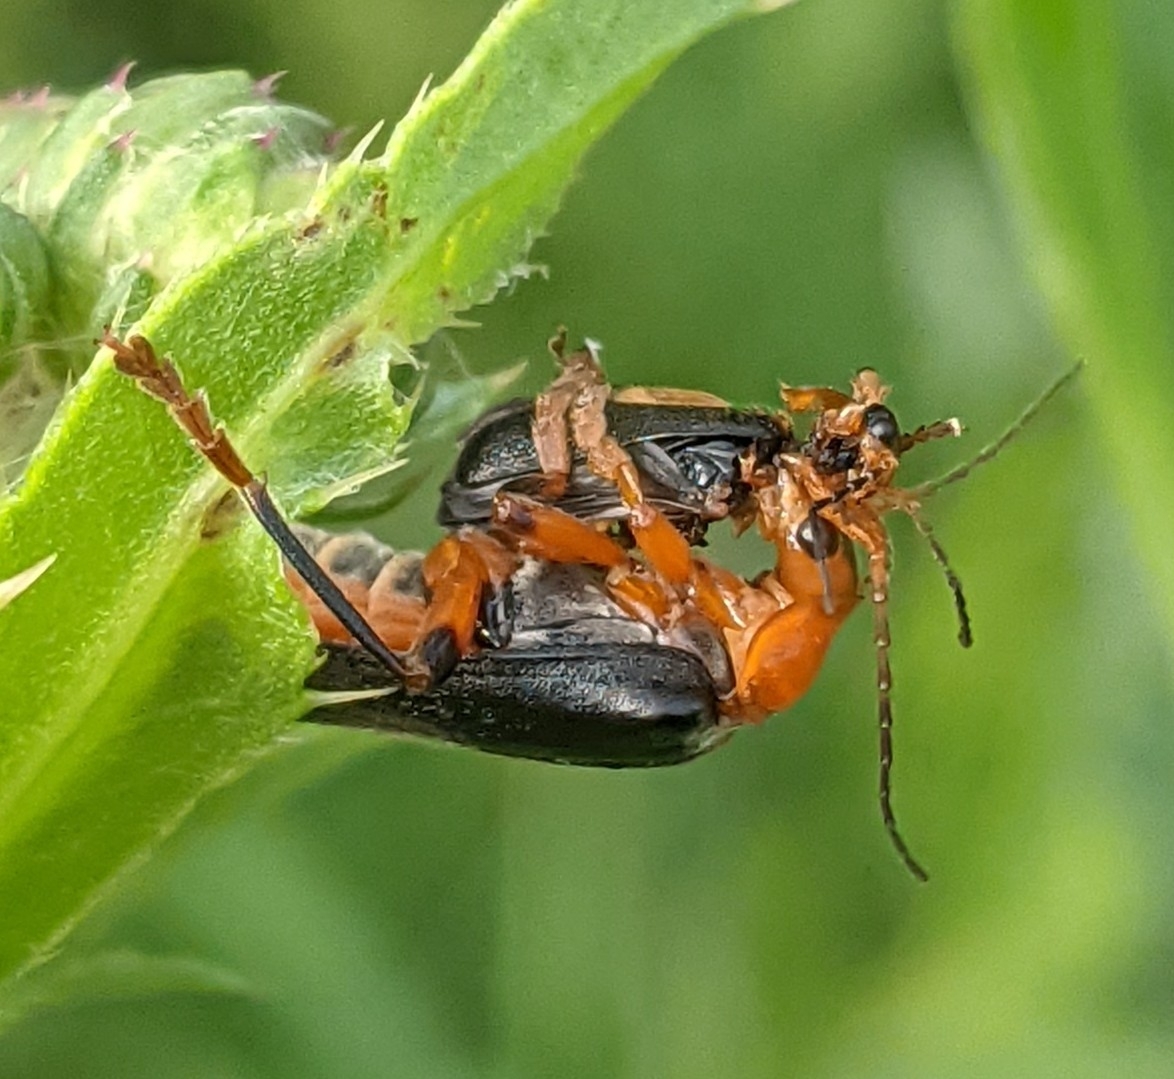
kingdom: Animalia
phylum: Arthropoda
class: Insecta
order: Coleoptera
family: Cantharidae
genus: Cantharis
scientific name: Cantharis livida
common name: Livid soldier beetle
